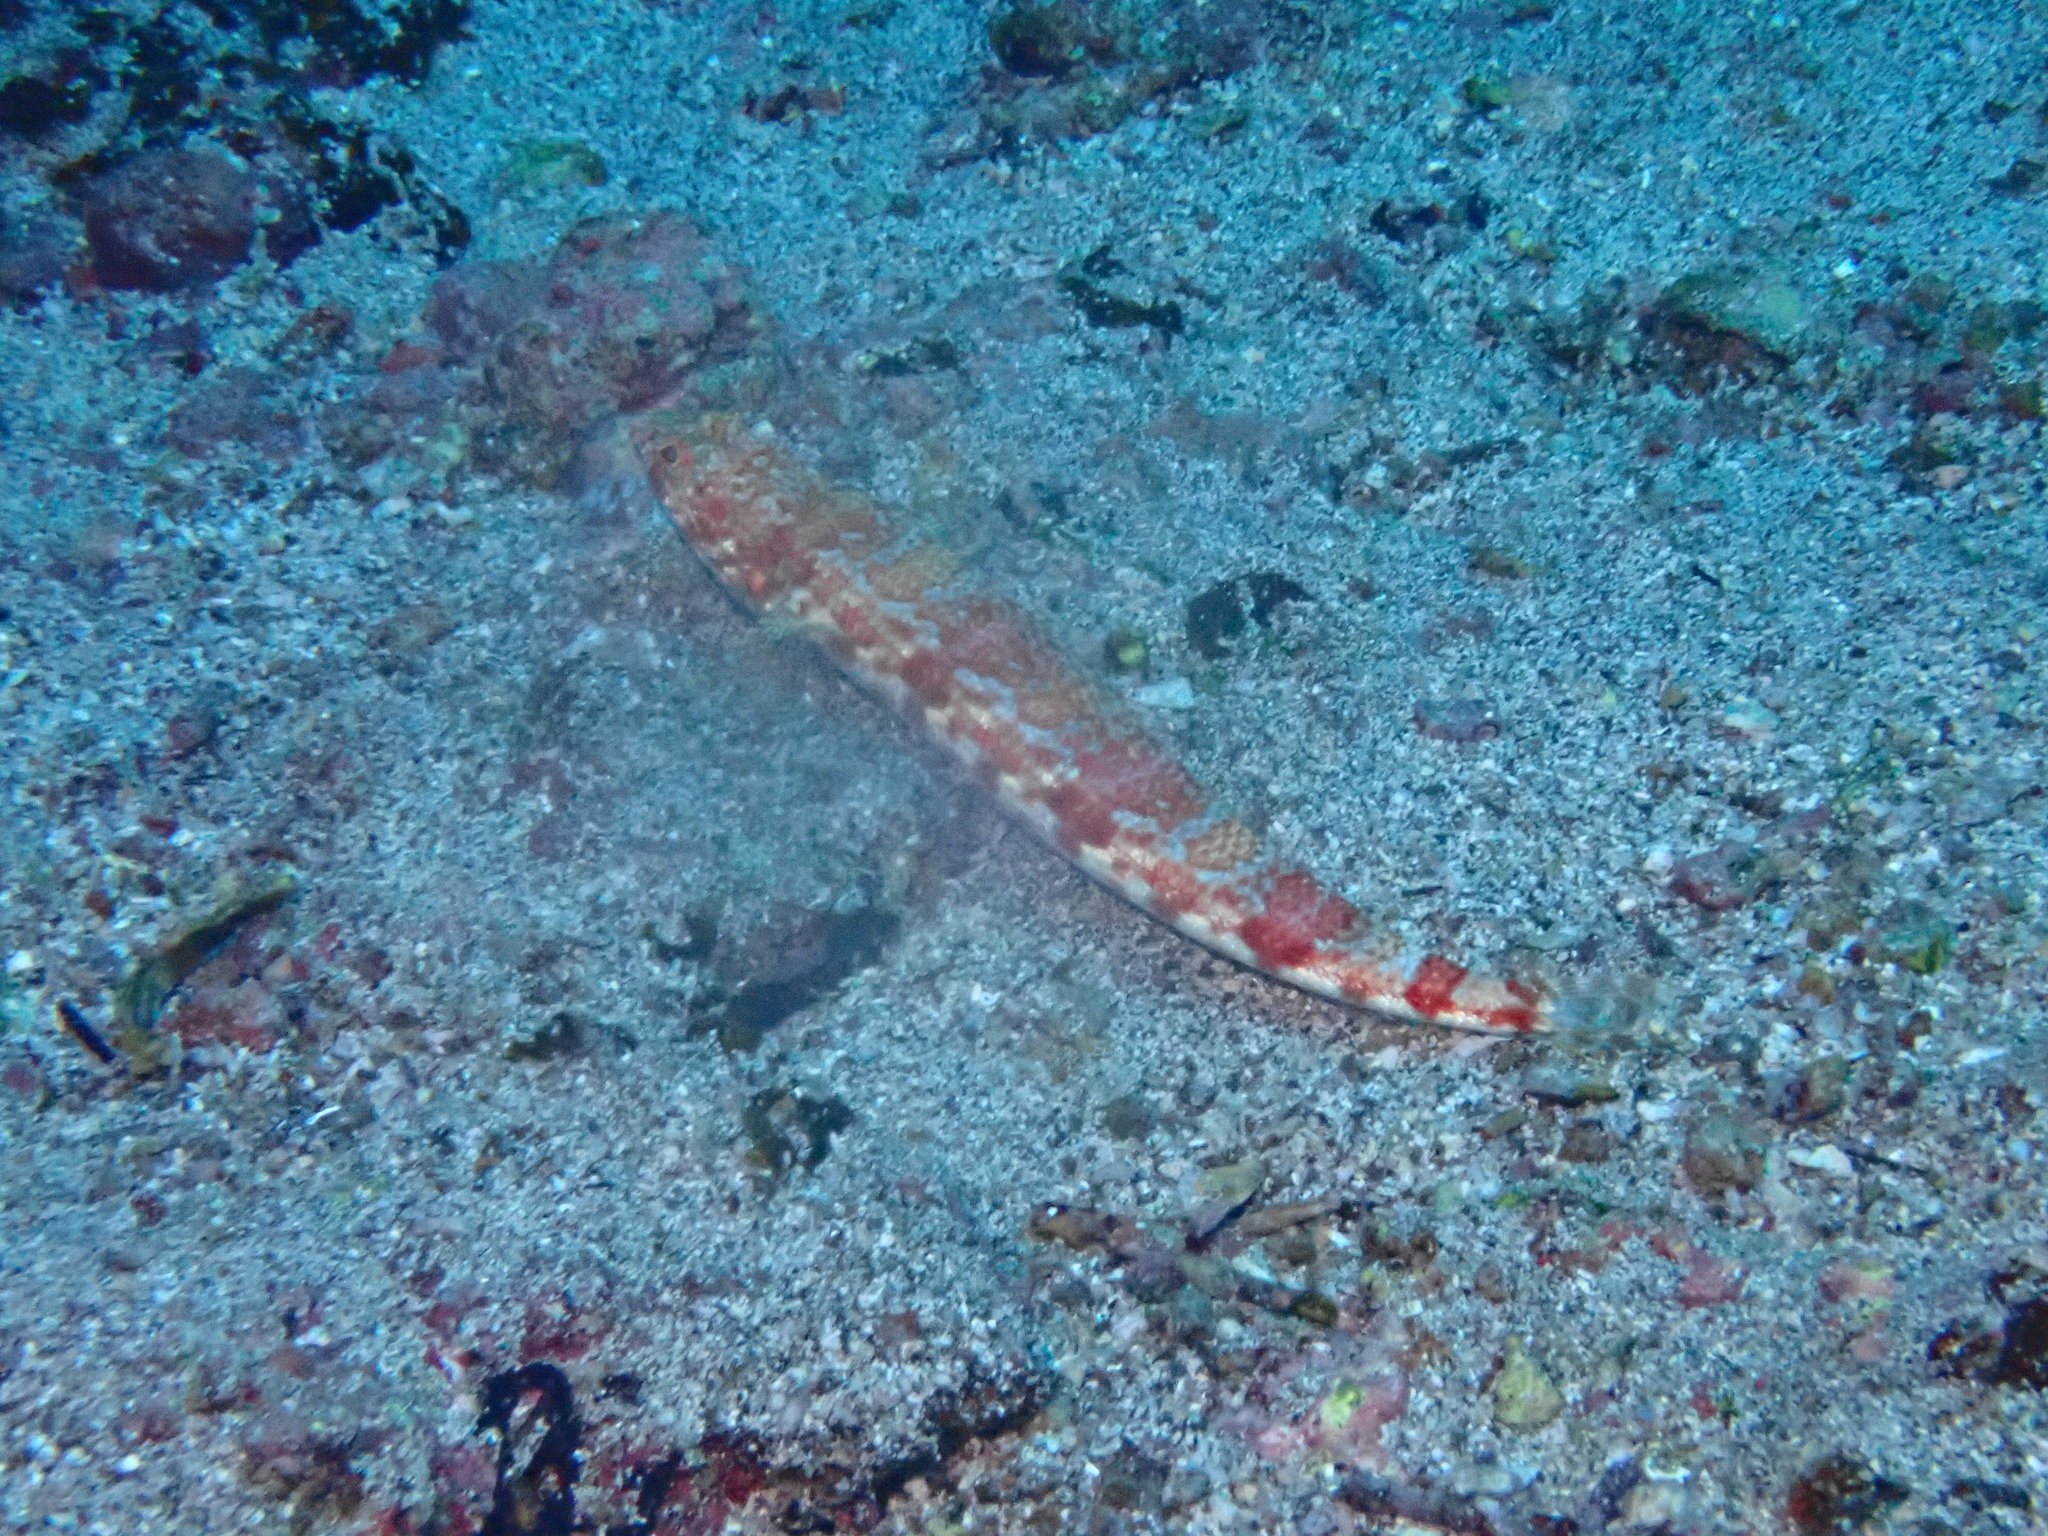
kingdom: Animalia
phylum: Chordata
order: Aulopiformes
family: Synodontidae
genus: Synodus
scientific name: Synodus lacertinus
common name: Calico lizardfish
